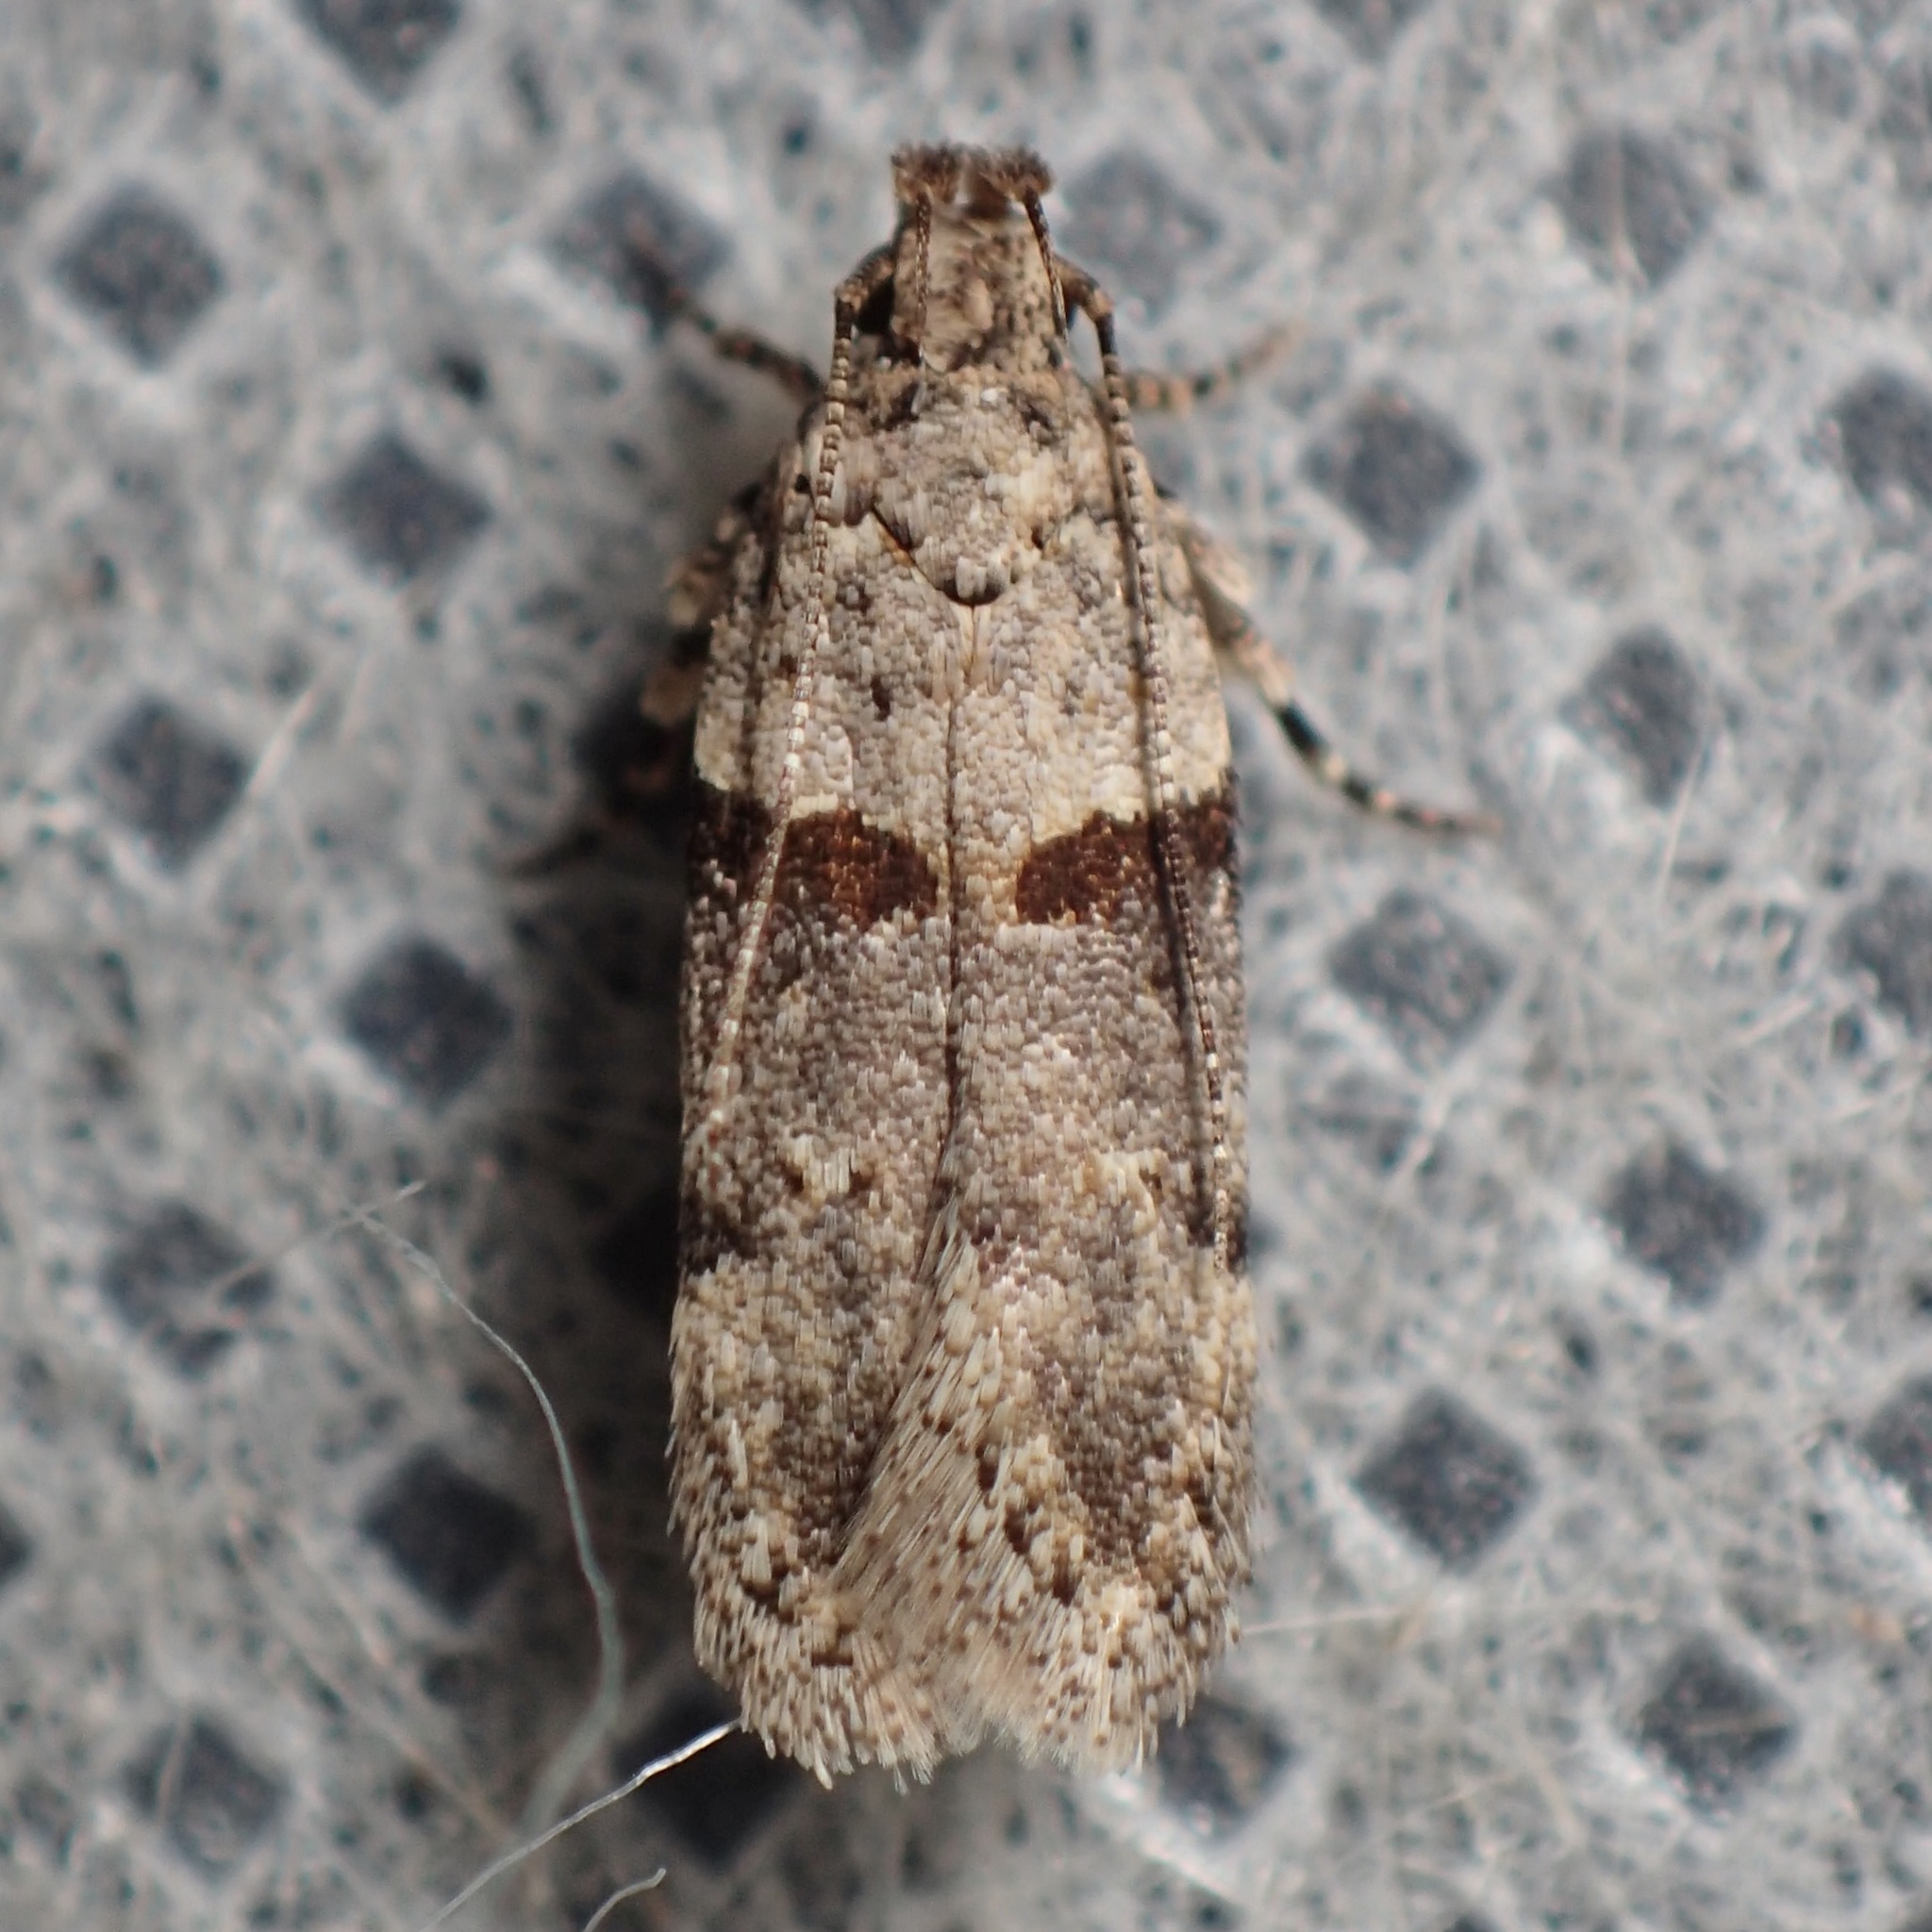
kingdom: Animalia
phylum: Arthropoda
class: Insecta
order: Lepidoptera
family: Gelechiidae
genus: Faculta
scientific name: Faculta inaequalis
